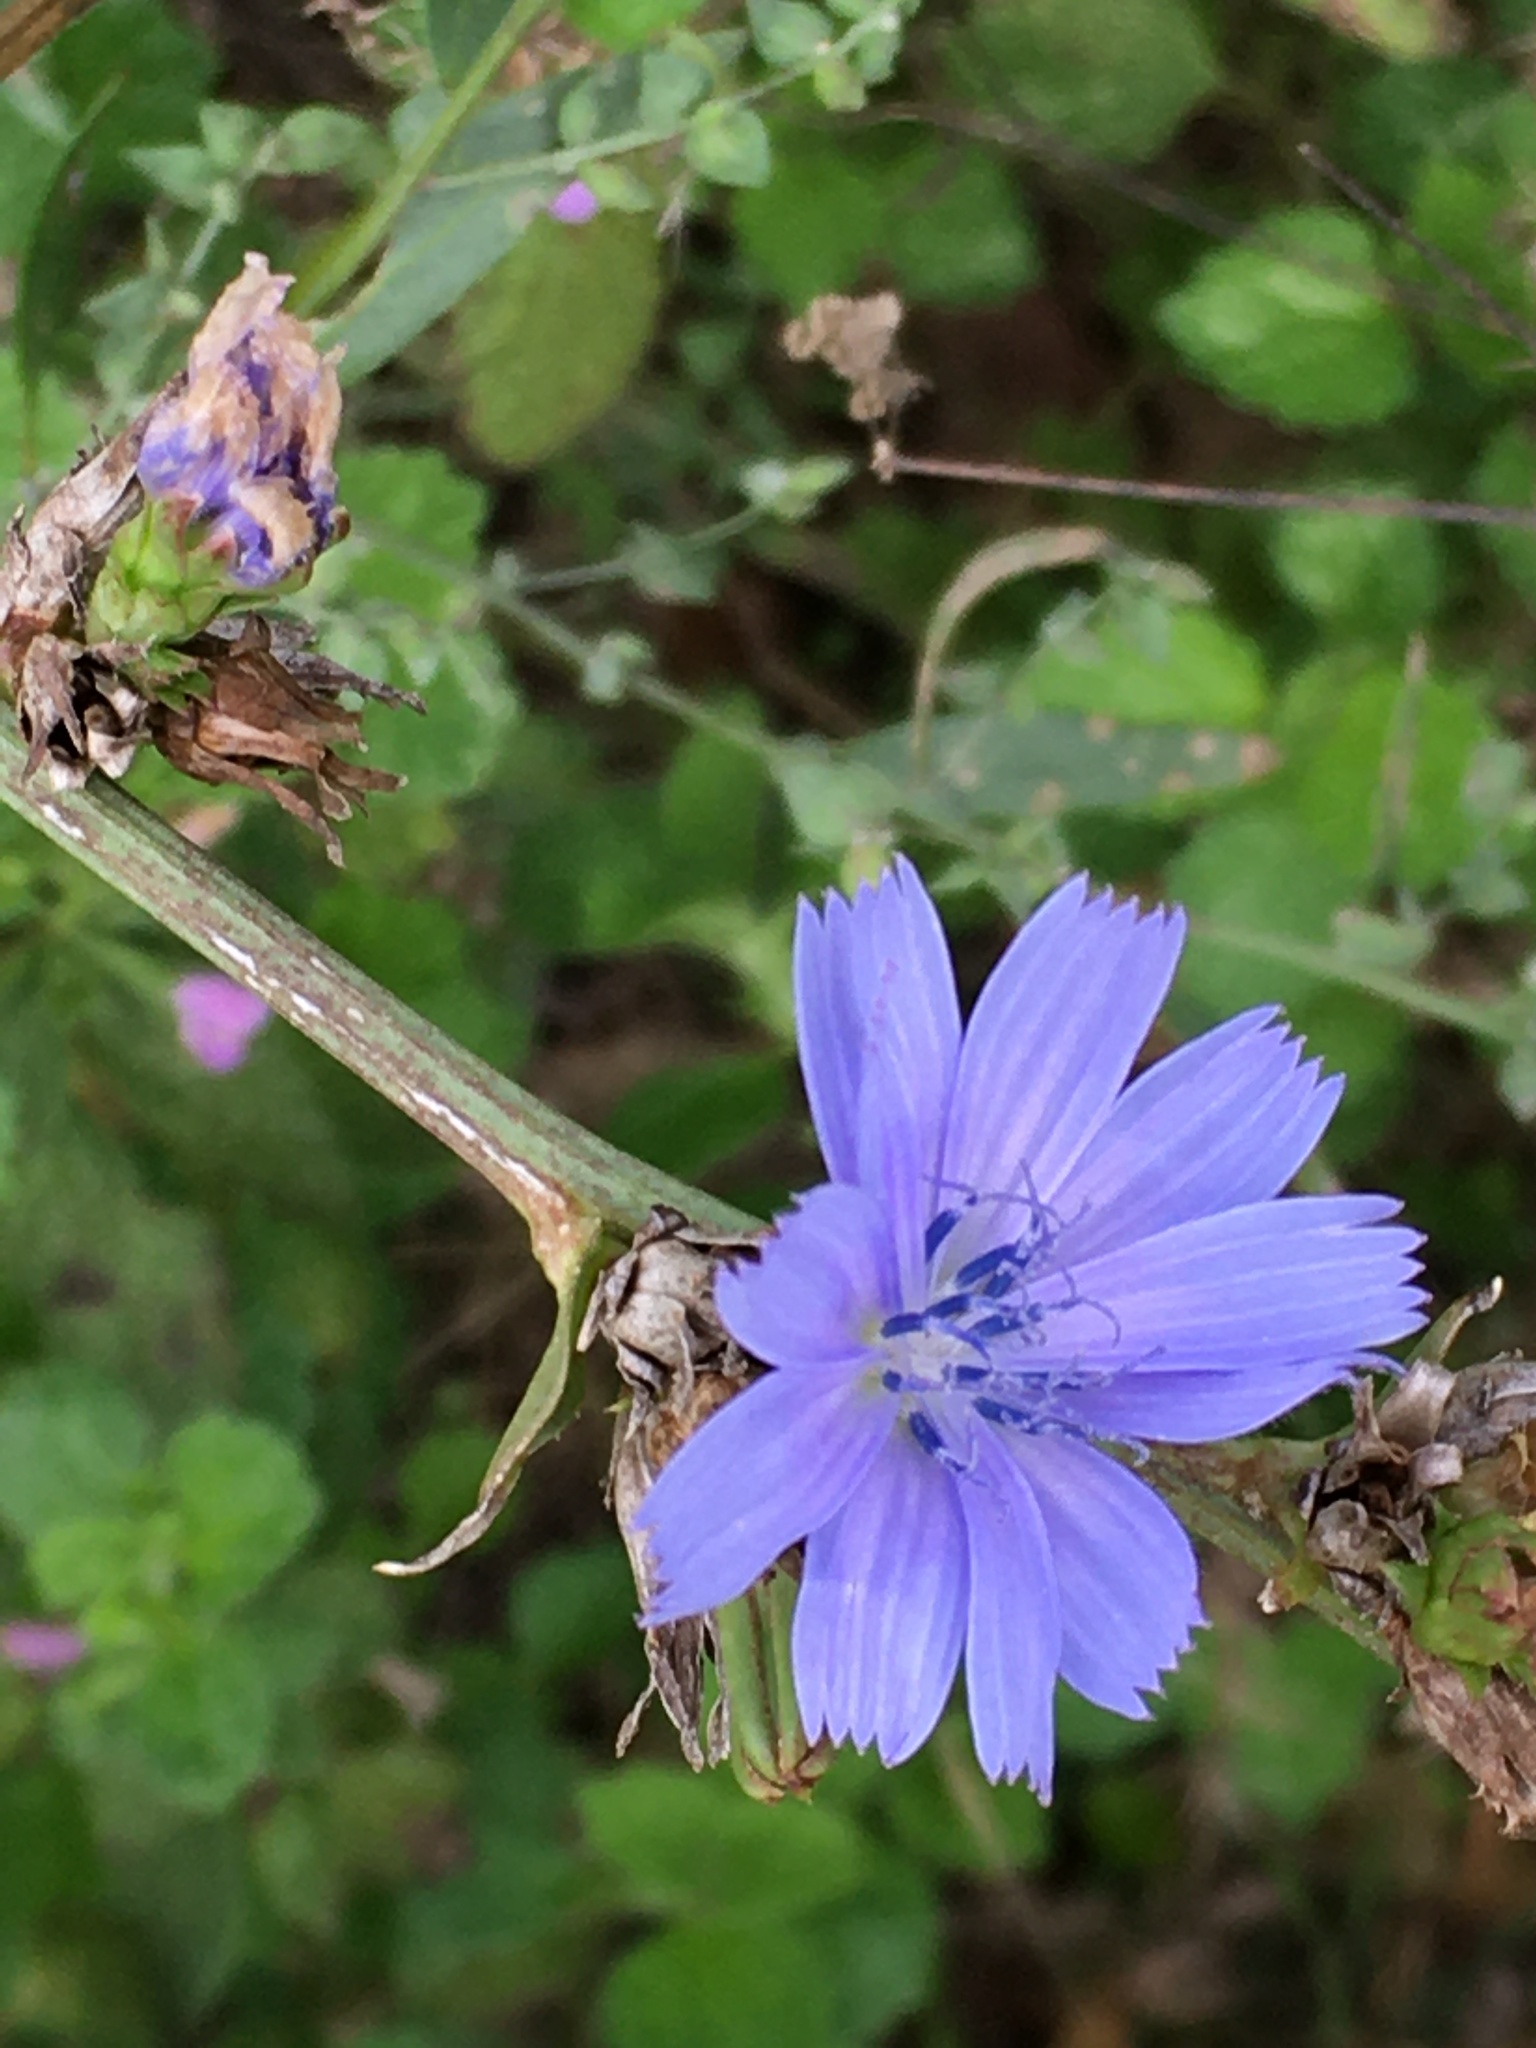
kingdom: Plantae
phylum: Tracheophyta
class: Magnoliopsida
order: Asterales
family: Asteraceae
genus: Cichorium
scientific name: Cichorium intybus
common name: Chicory
